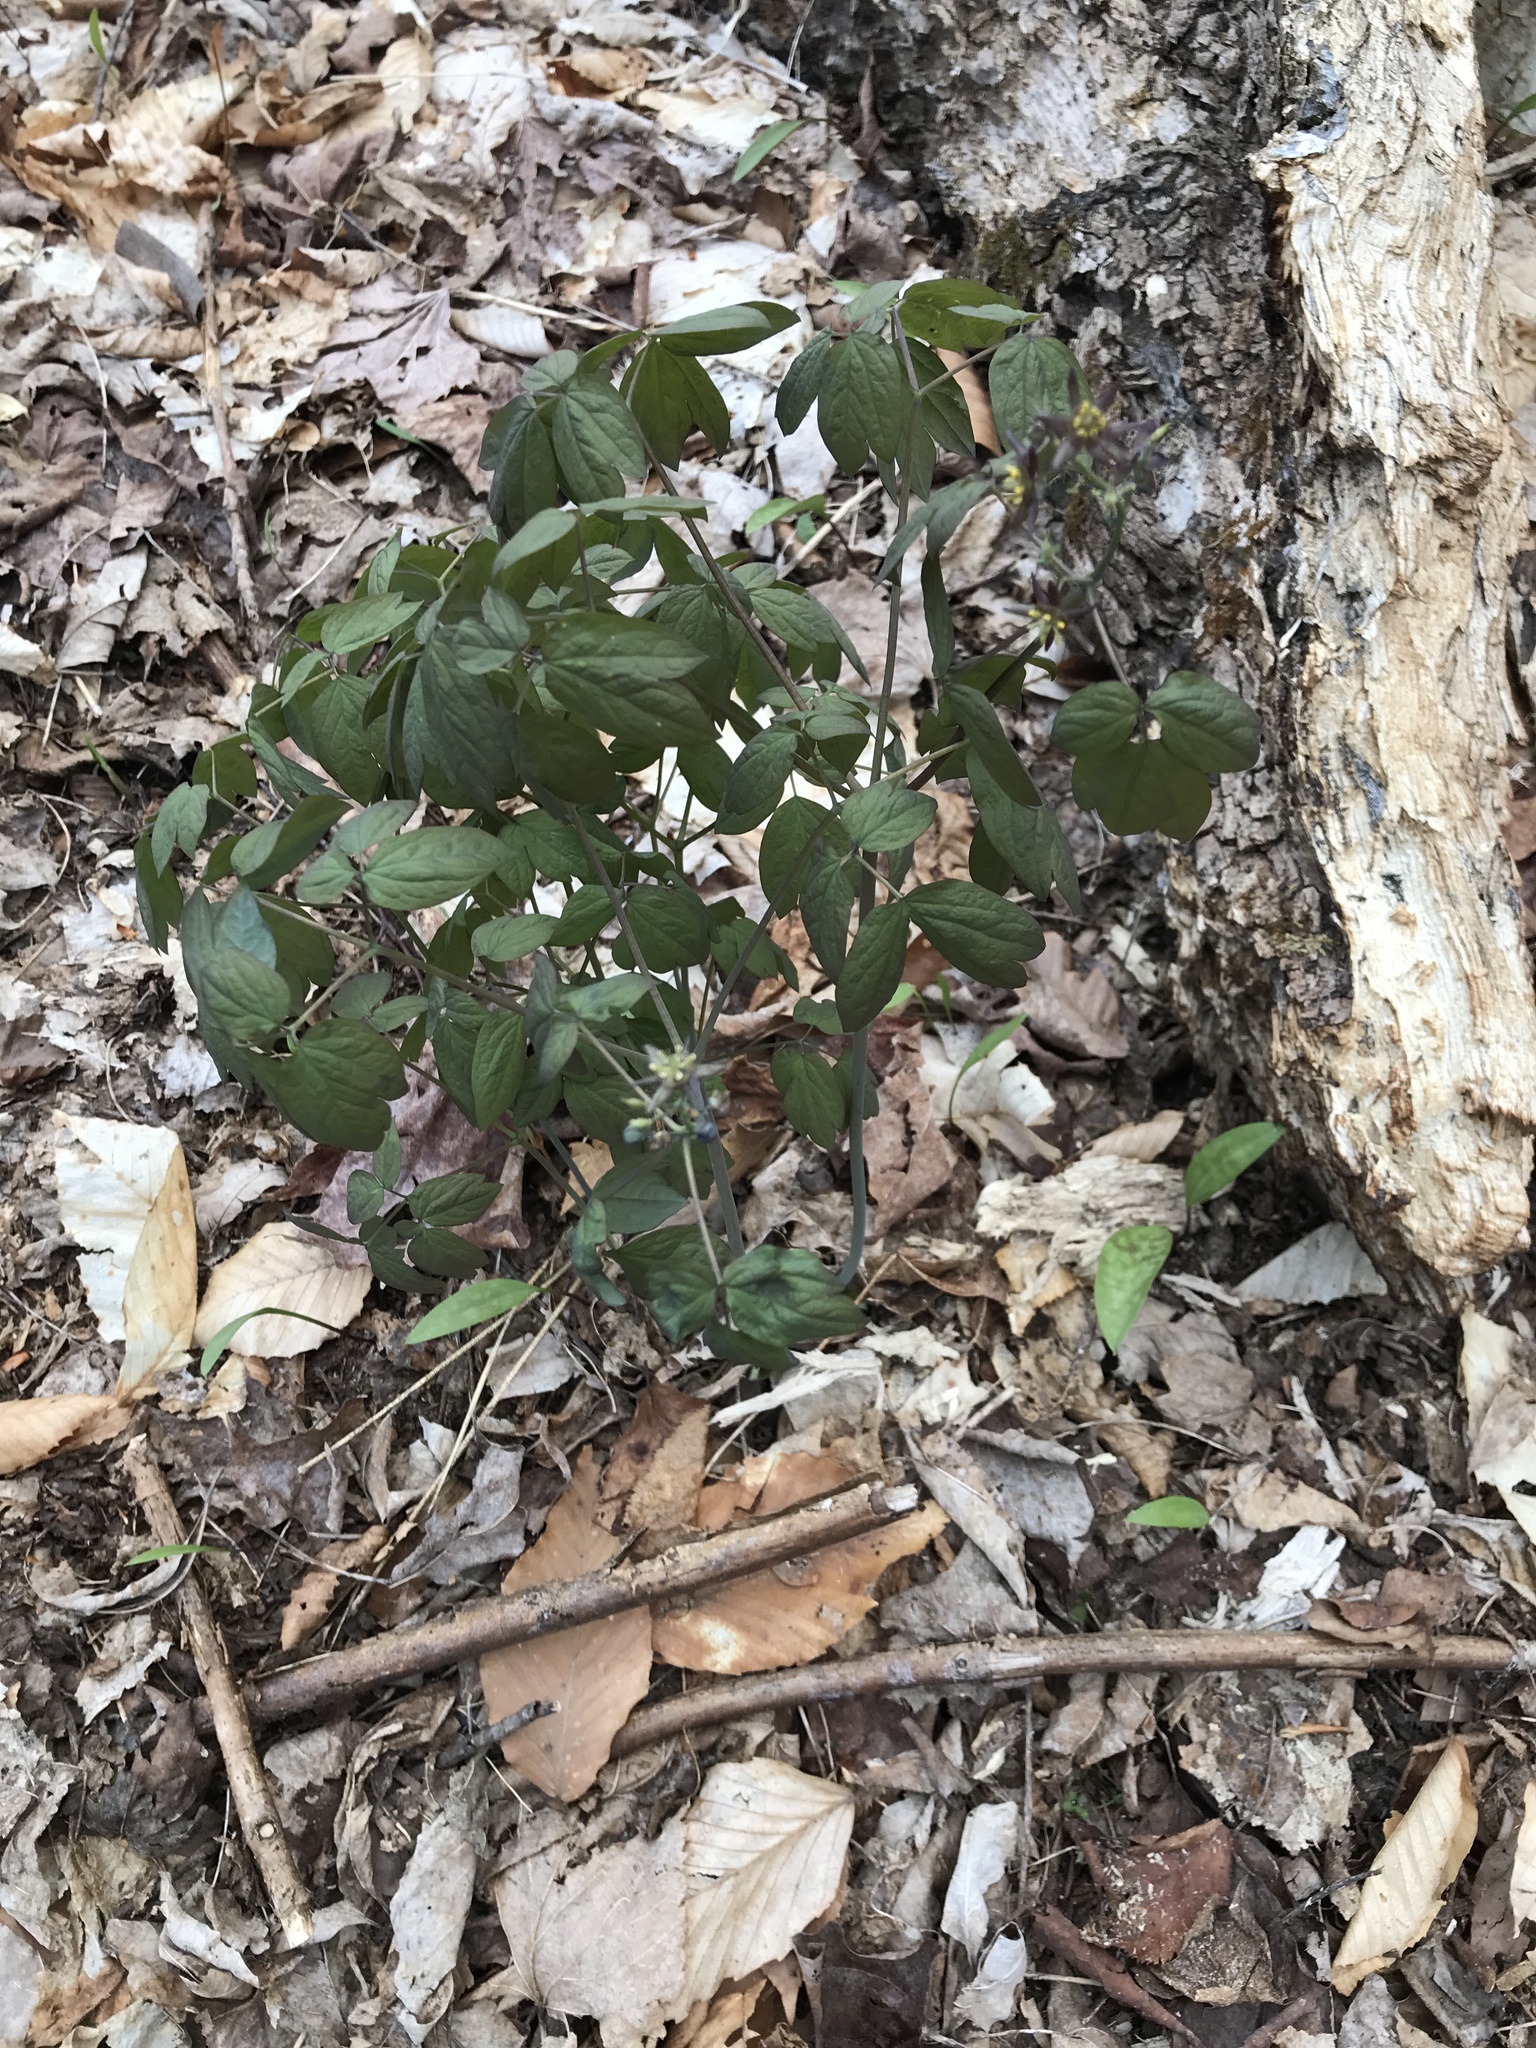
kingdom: Plantae
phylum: Tracheophyta
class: Magnoliopsida
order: Ranunculales
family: Berberidaceae
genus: Caulophyllum
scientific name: Caulophyllum giganteum
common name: Blue cohosh
